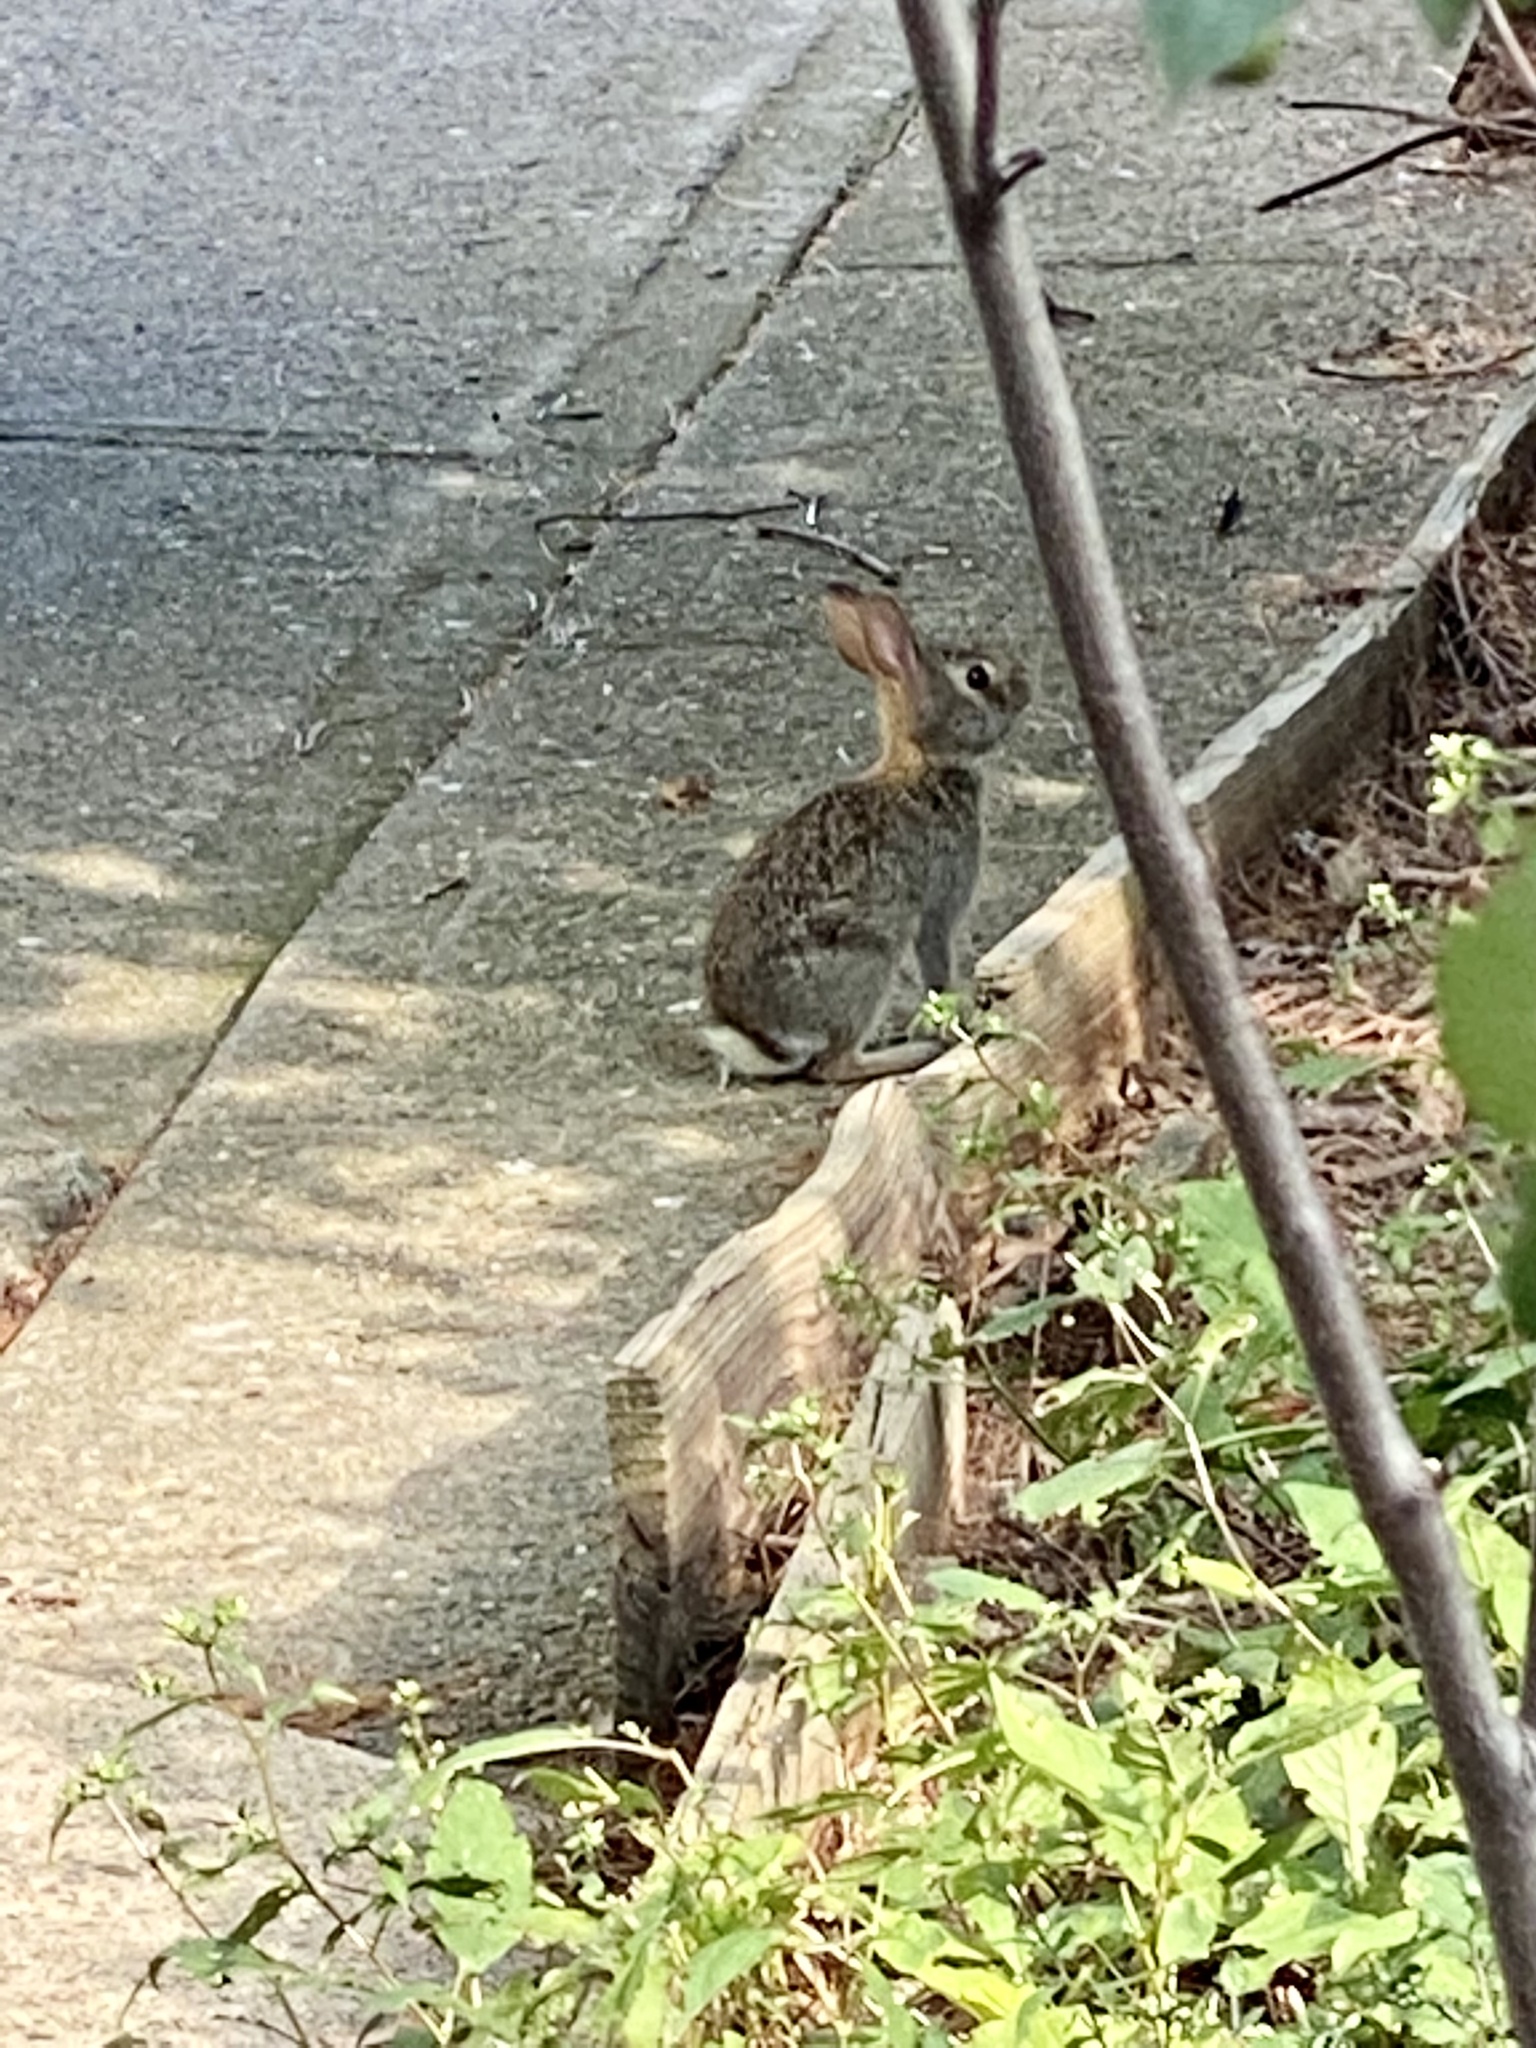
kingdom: Animalia
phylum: Chordata
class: Mammalia
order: Lagomorpha
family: Leporidae
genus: Sylvilagus
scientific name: Sylvilagus floridanus
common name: Eastern cottontail
